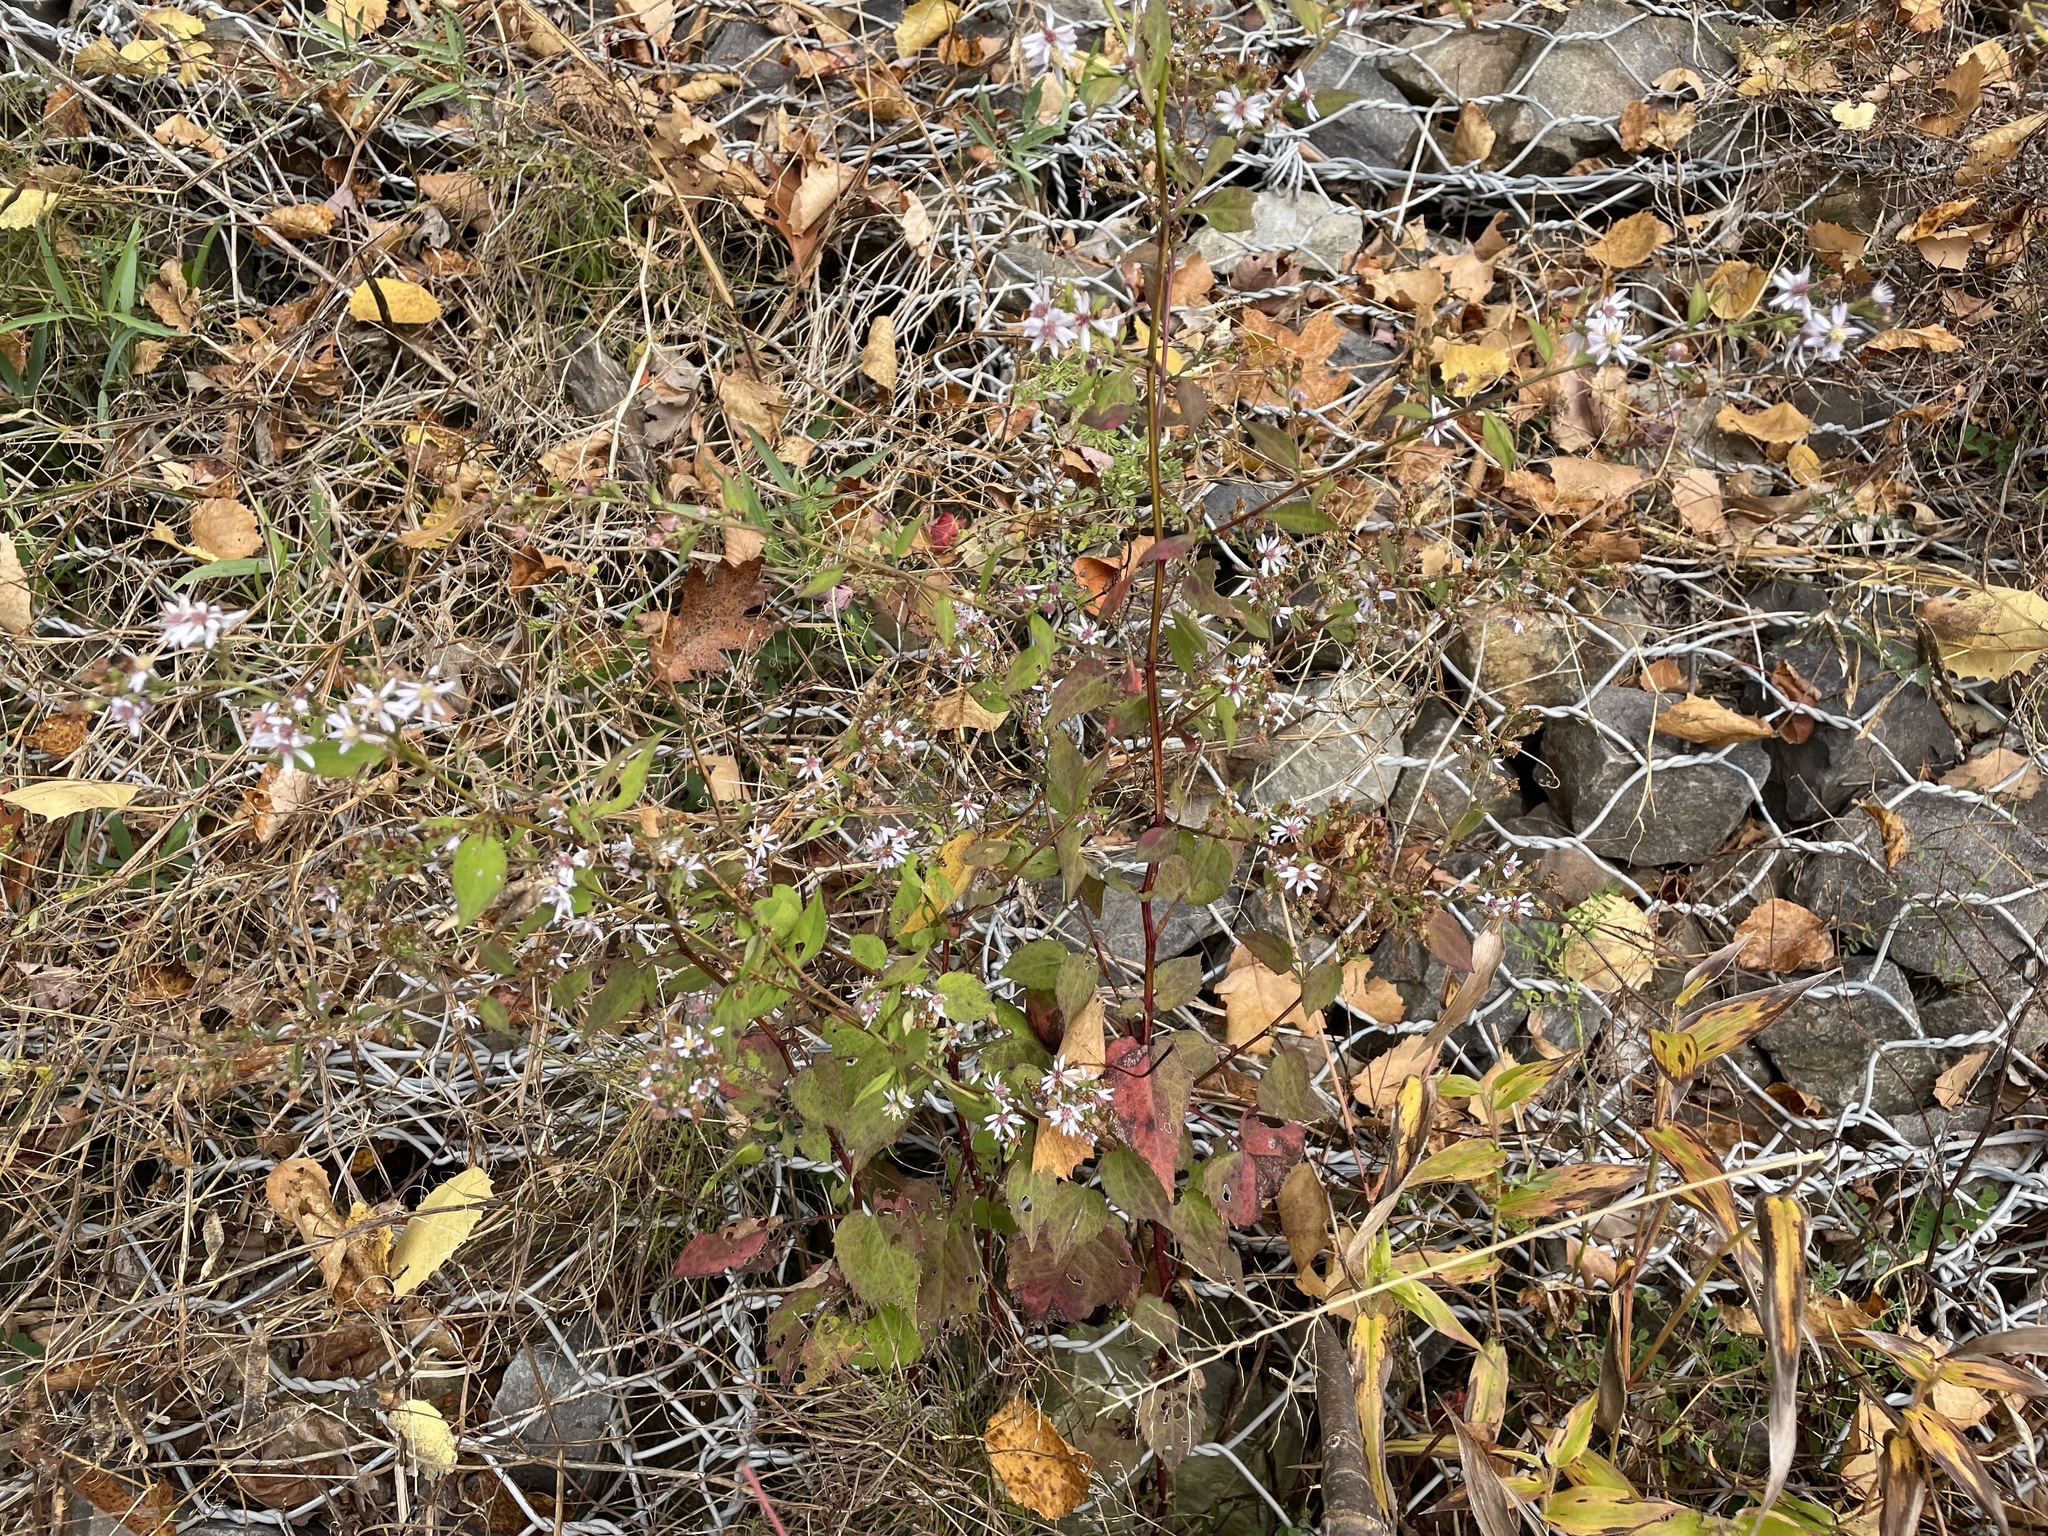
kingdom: Plantae
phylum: Tracheophyta
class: Magnoliopsida
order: Asterales
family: Asteraceae
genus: Symphyotrichum
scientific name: Symphyotrichum cordifolium
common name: Beeweed
